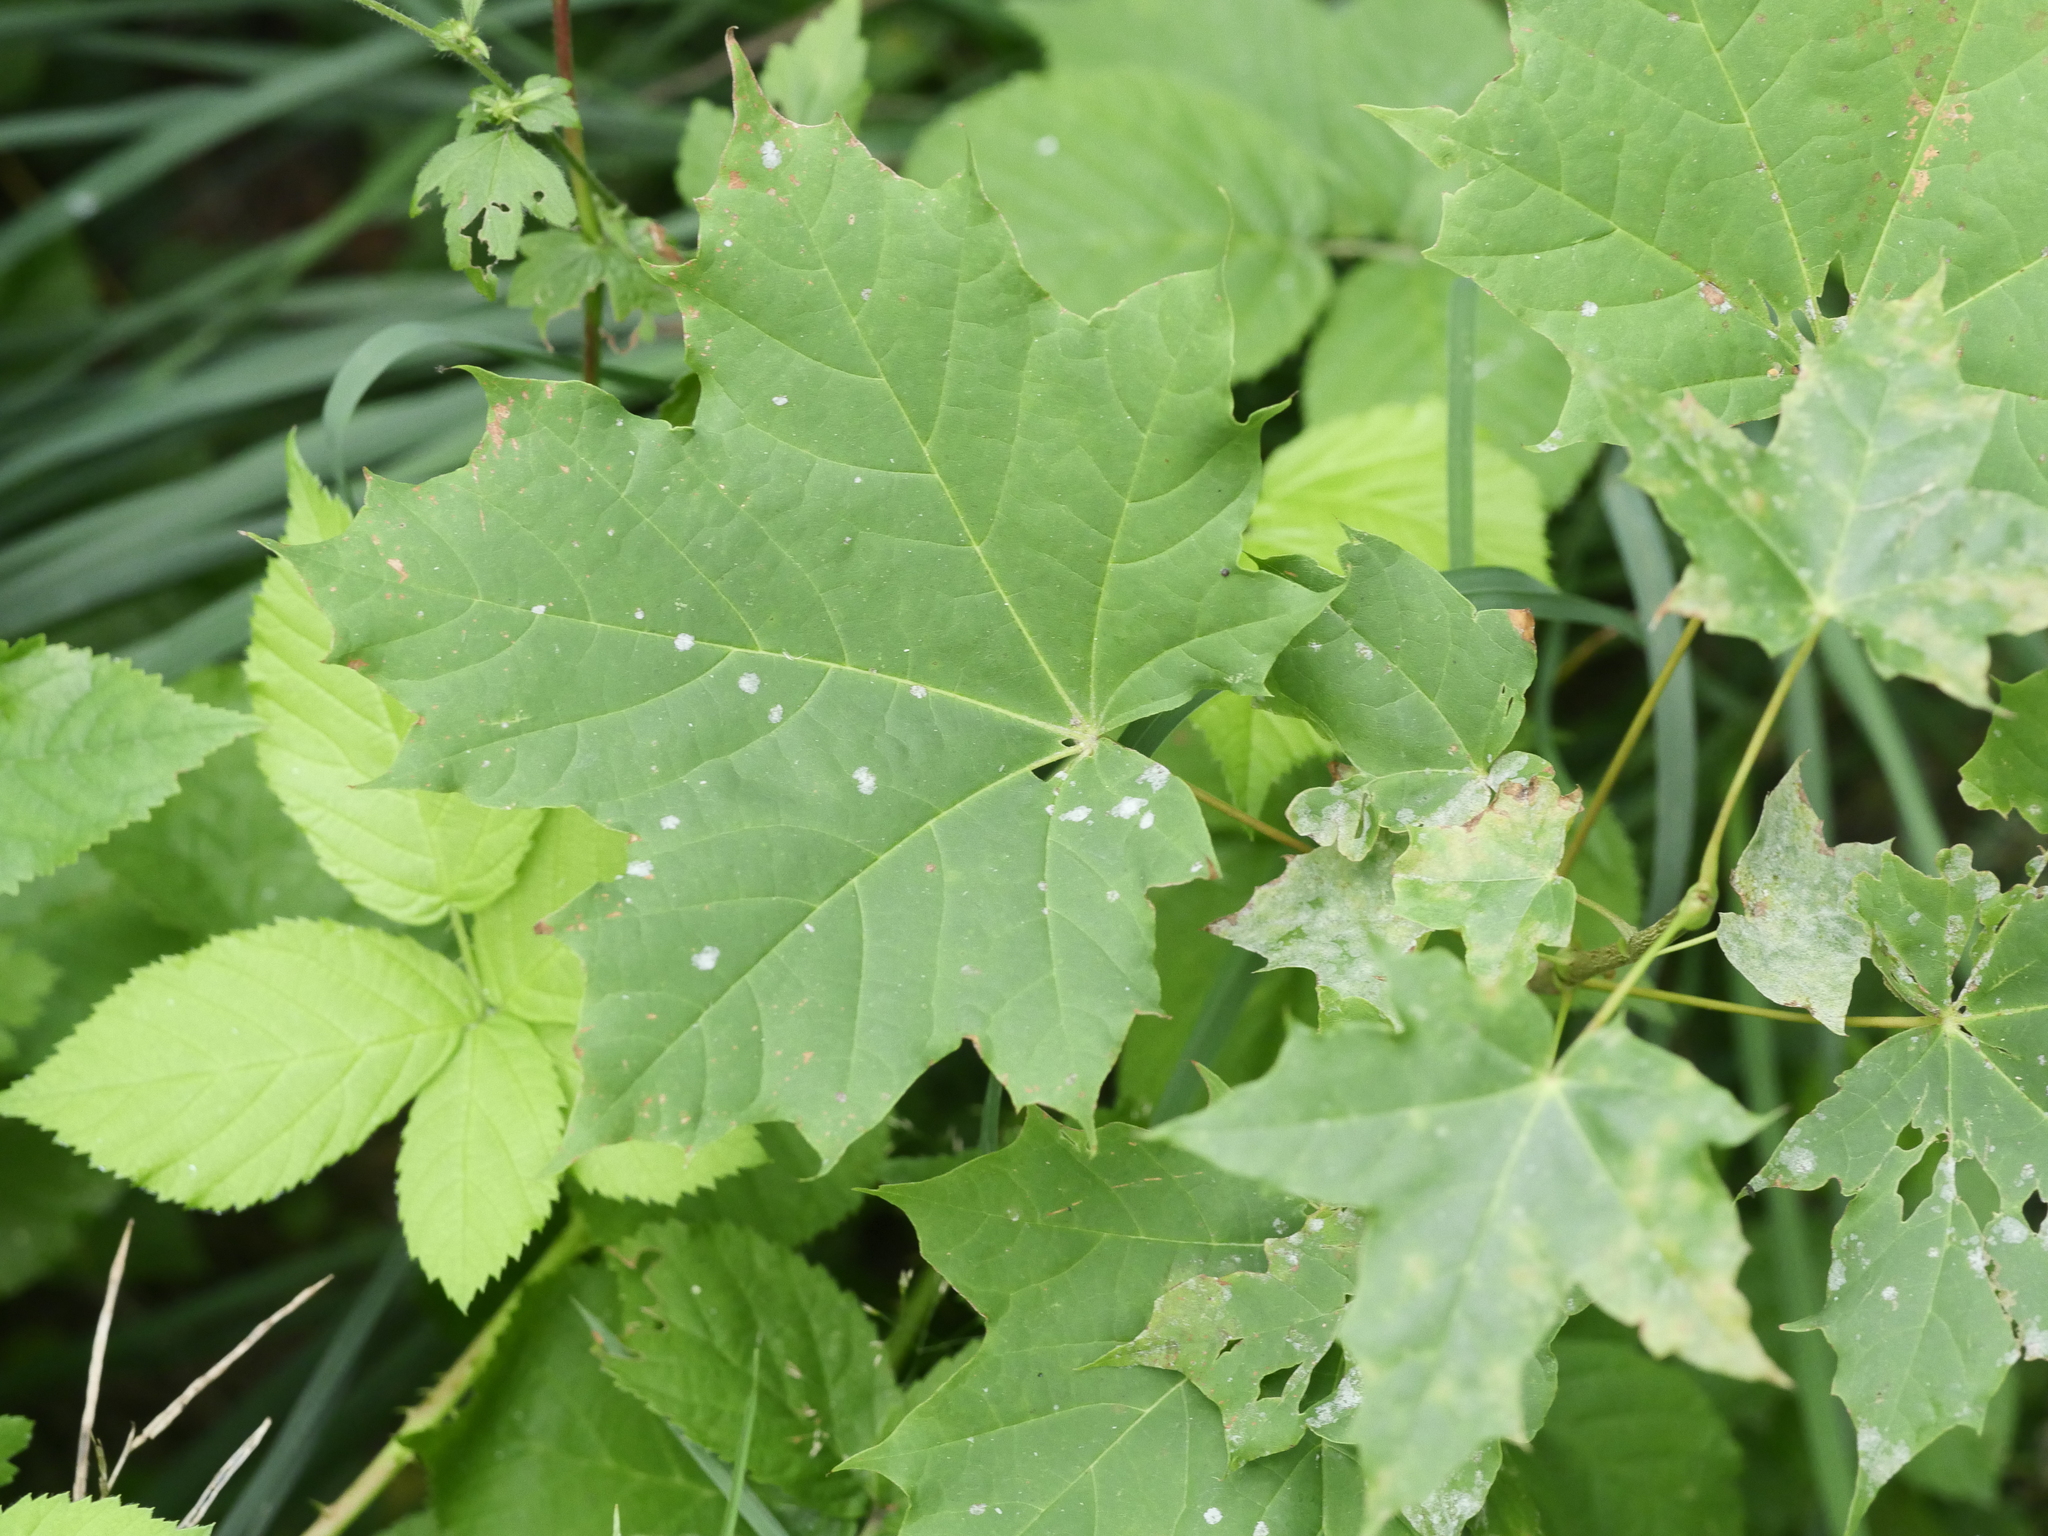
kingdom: Plantae
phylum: Tracheophyta
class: Magnoliopsida
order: Sapindales
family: Sapindaceae
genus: Acer
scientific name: Acer platanoides
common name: Norway maple
